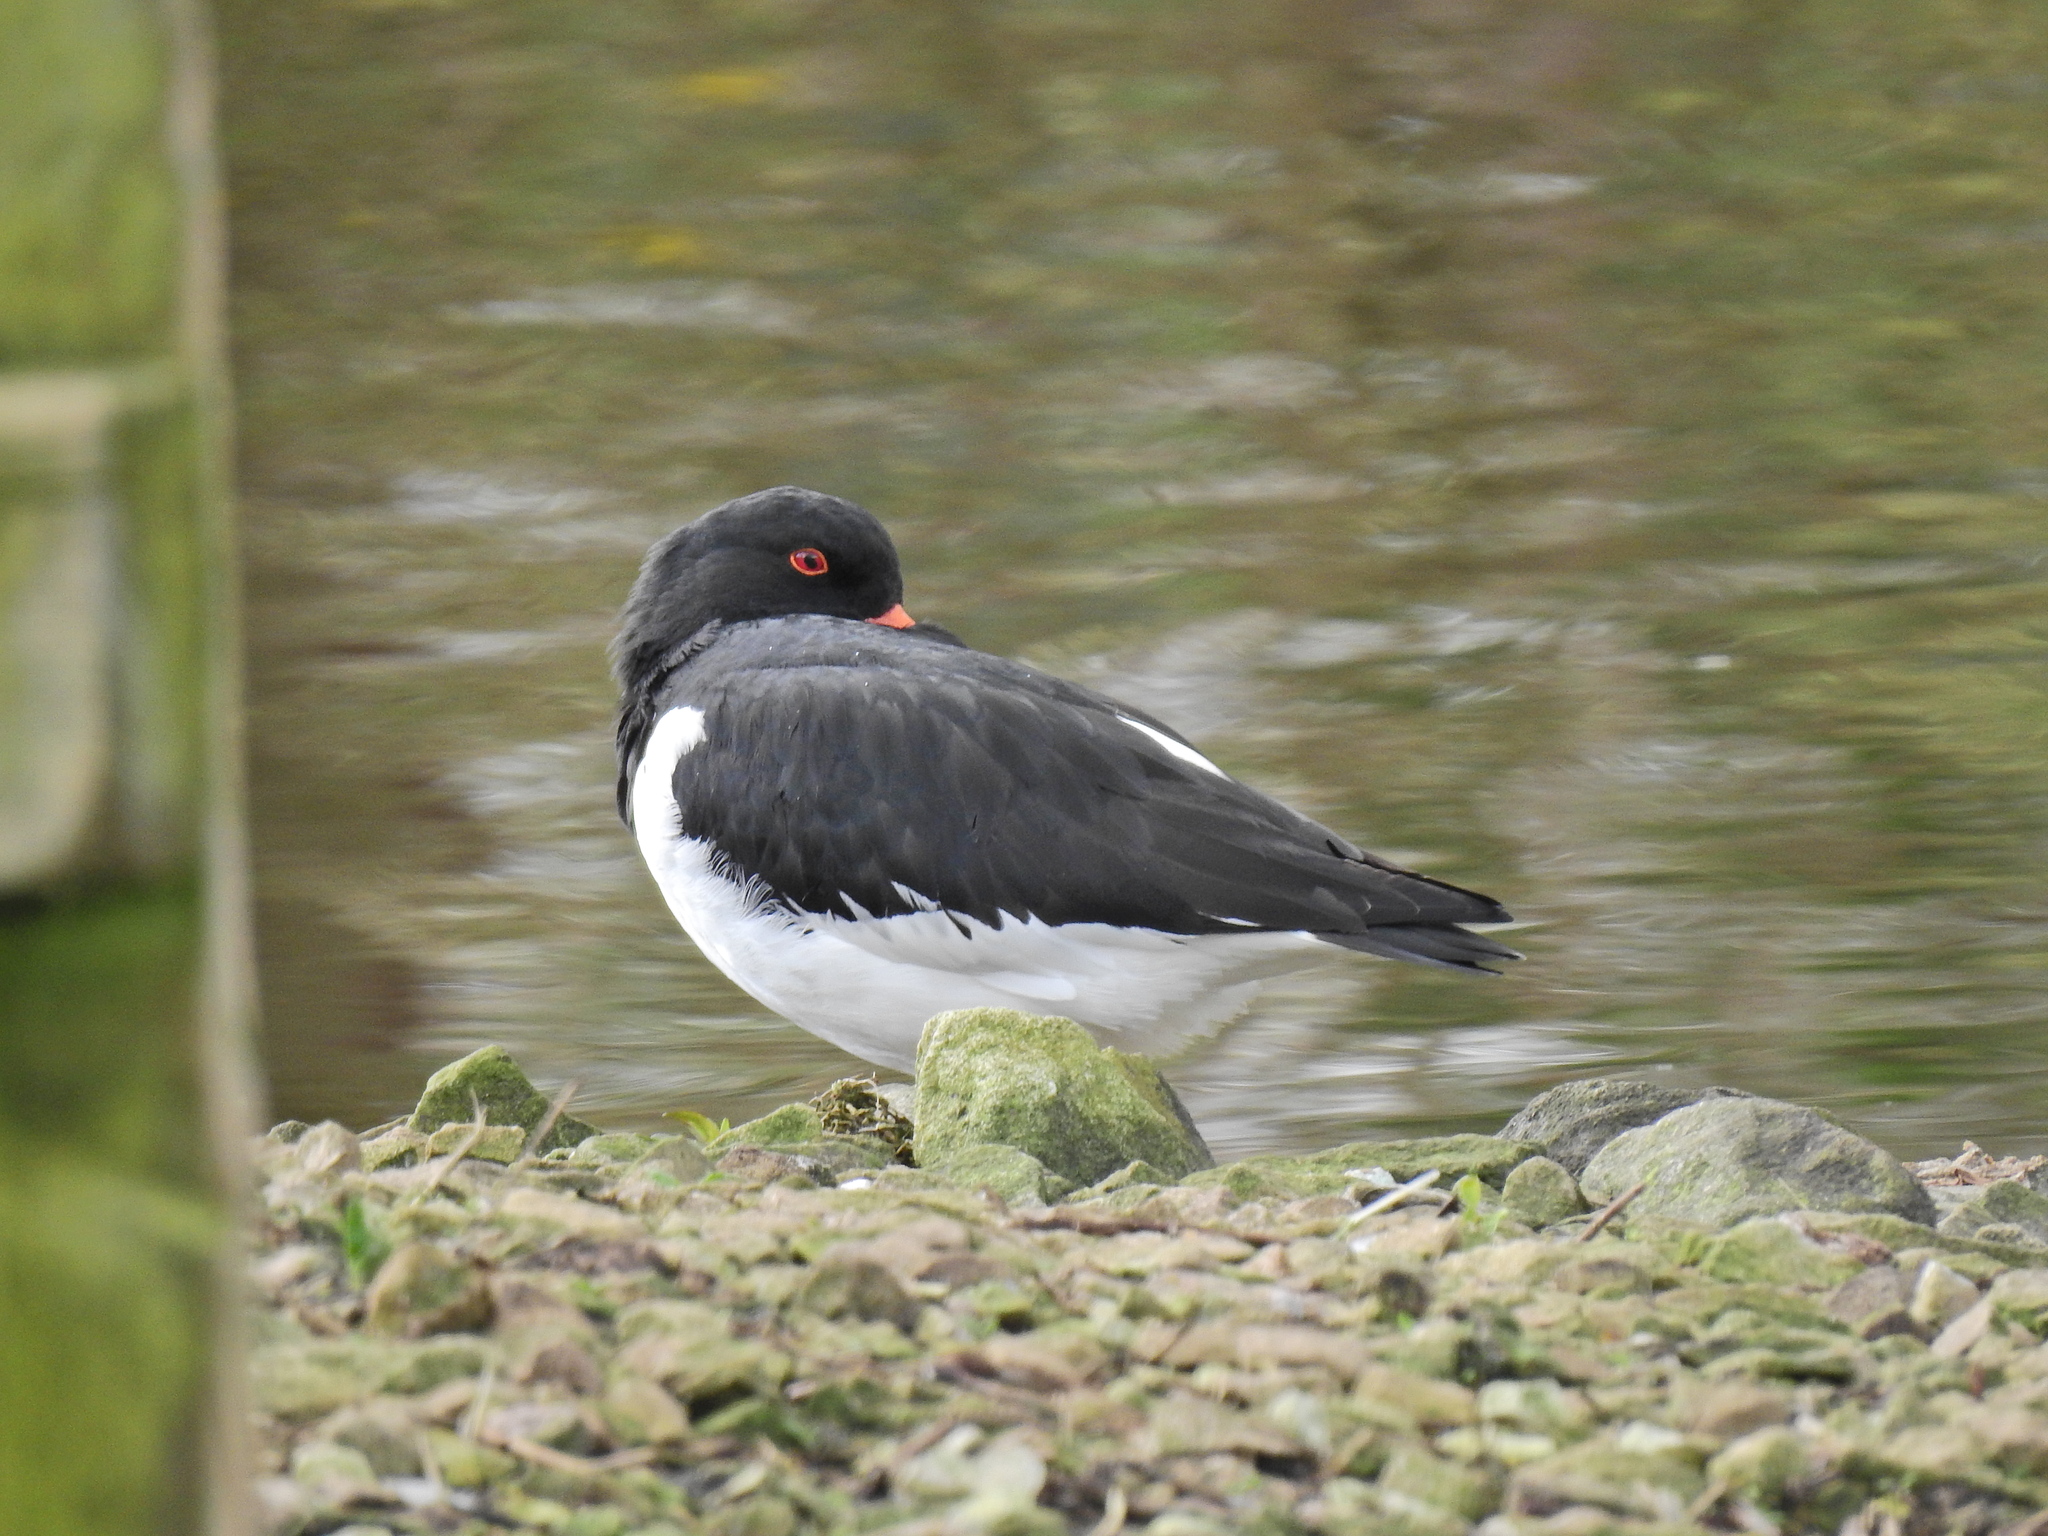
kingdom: Animalia
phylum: Chordata
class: Aves
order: Charadriiformes
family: Haematopodidae
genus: Haematopus
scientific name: Haematopus ostralegus
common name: Eurasian oystercatcher
